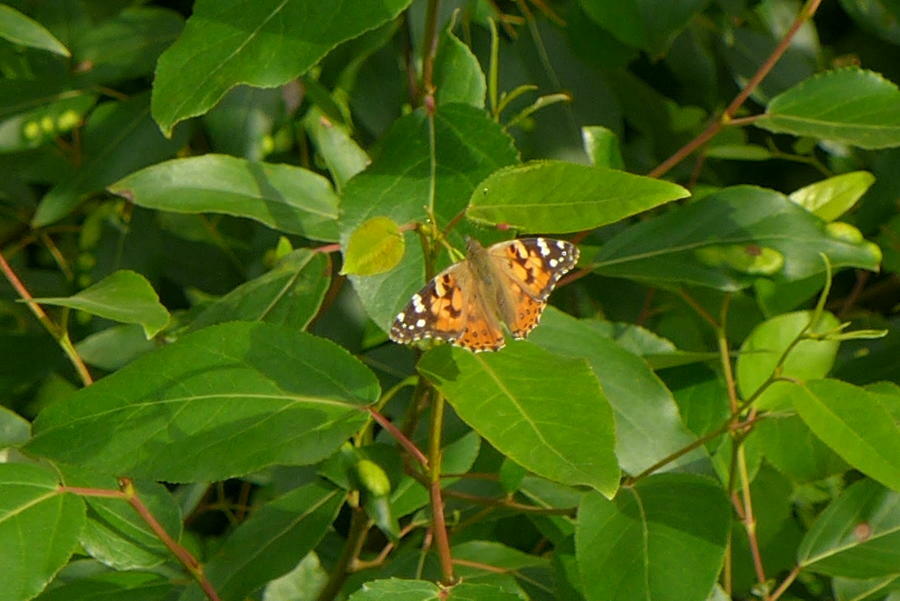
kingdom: Animalia
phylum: Arthropoda
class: Insecta
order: Lepidoptera
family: Nymphalidae
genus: Vanessa
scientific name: Vanessa cardui
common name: Painted lady
